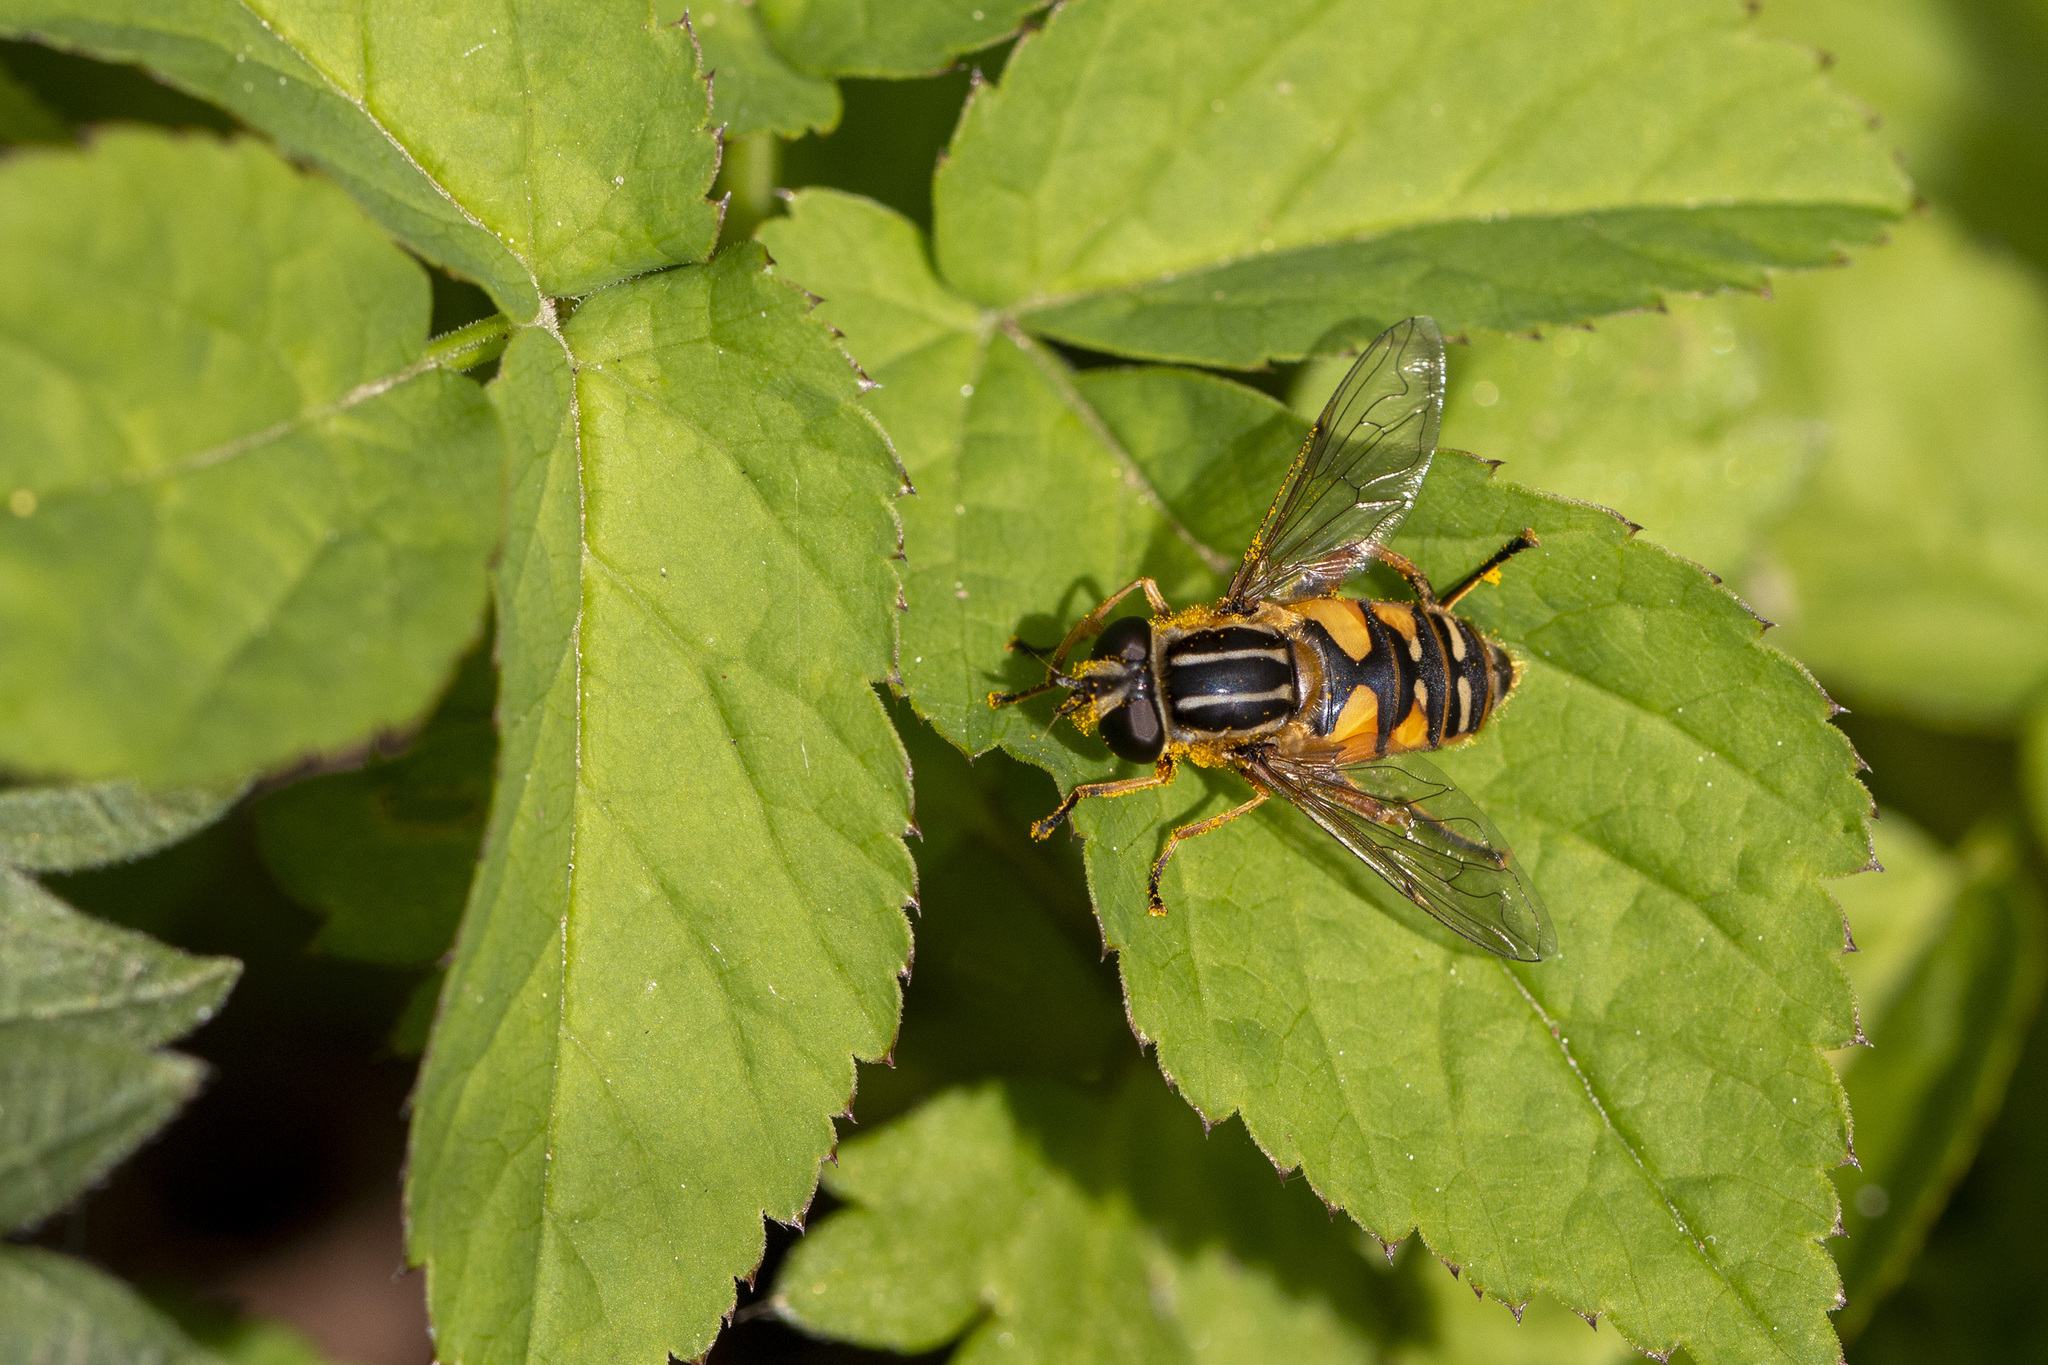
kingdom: Animalia
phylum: Arthropoda
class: Insecta
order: Diptera
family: Syrphidae
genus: Helophilus
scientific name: Helophilus pendulus
